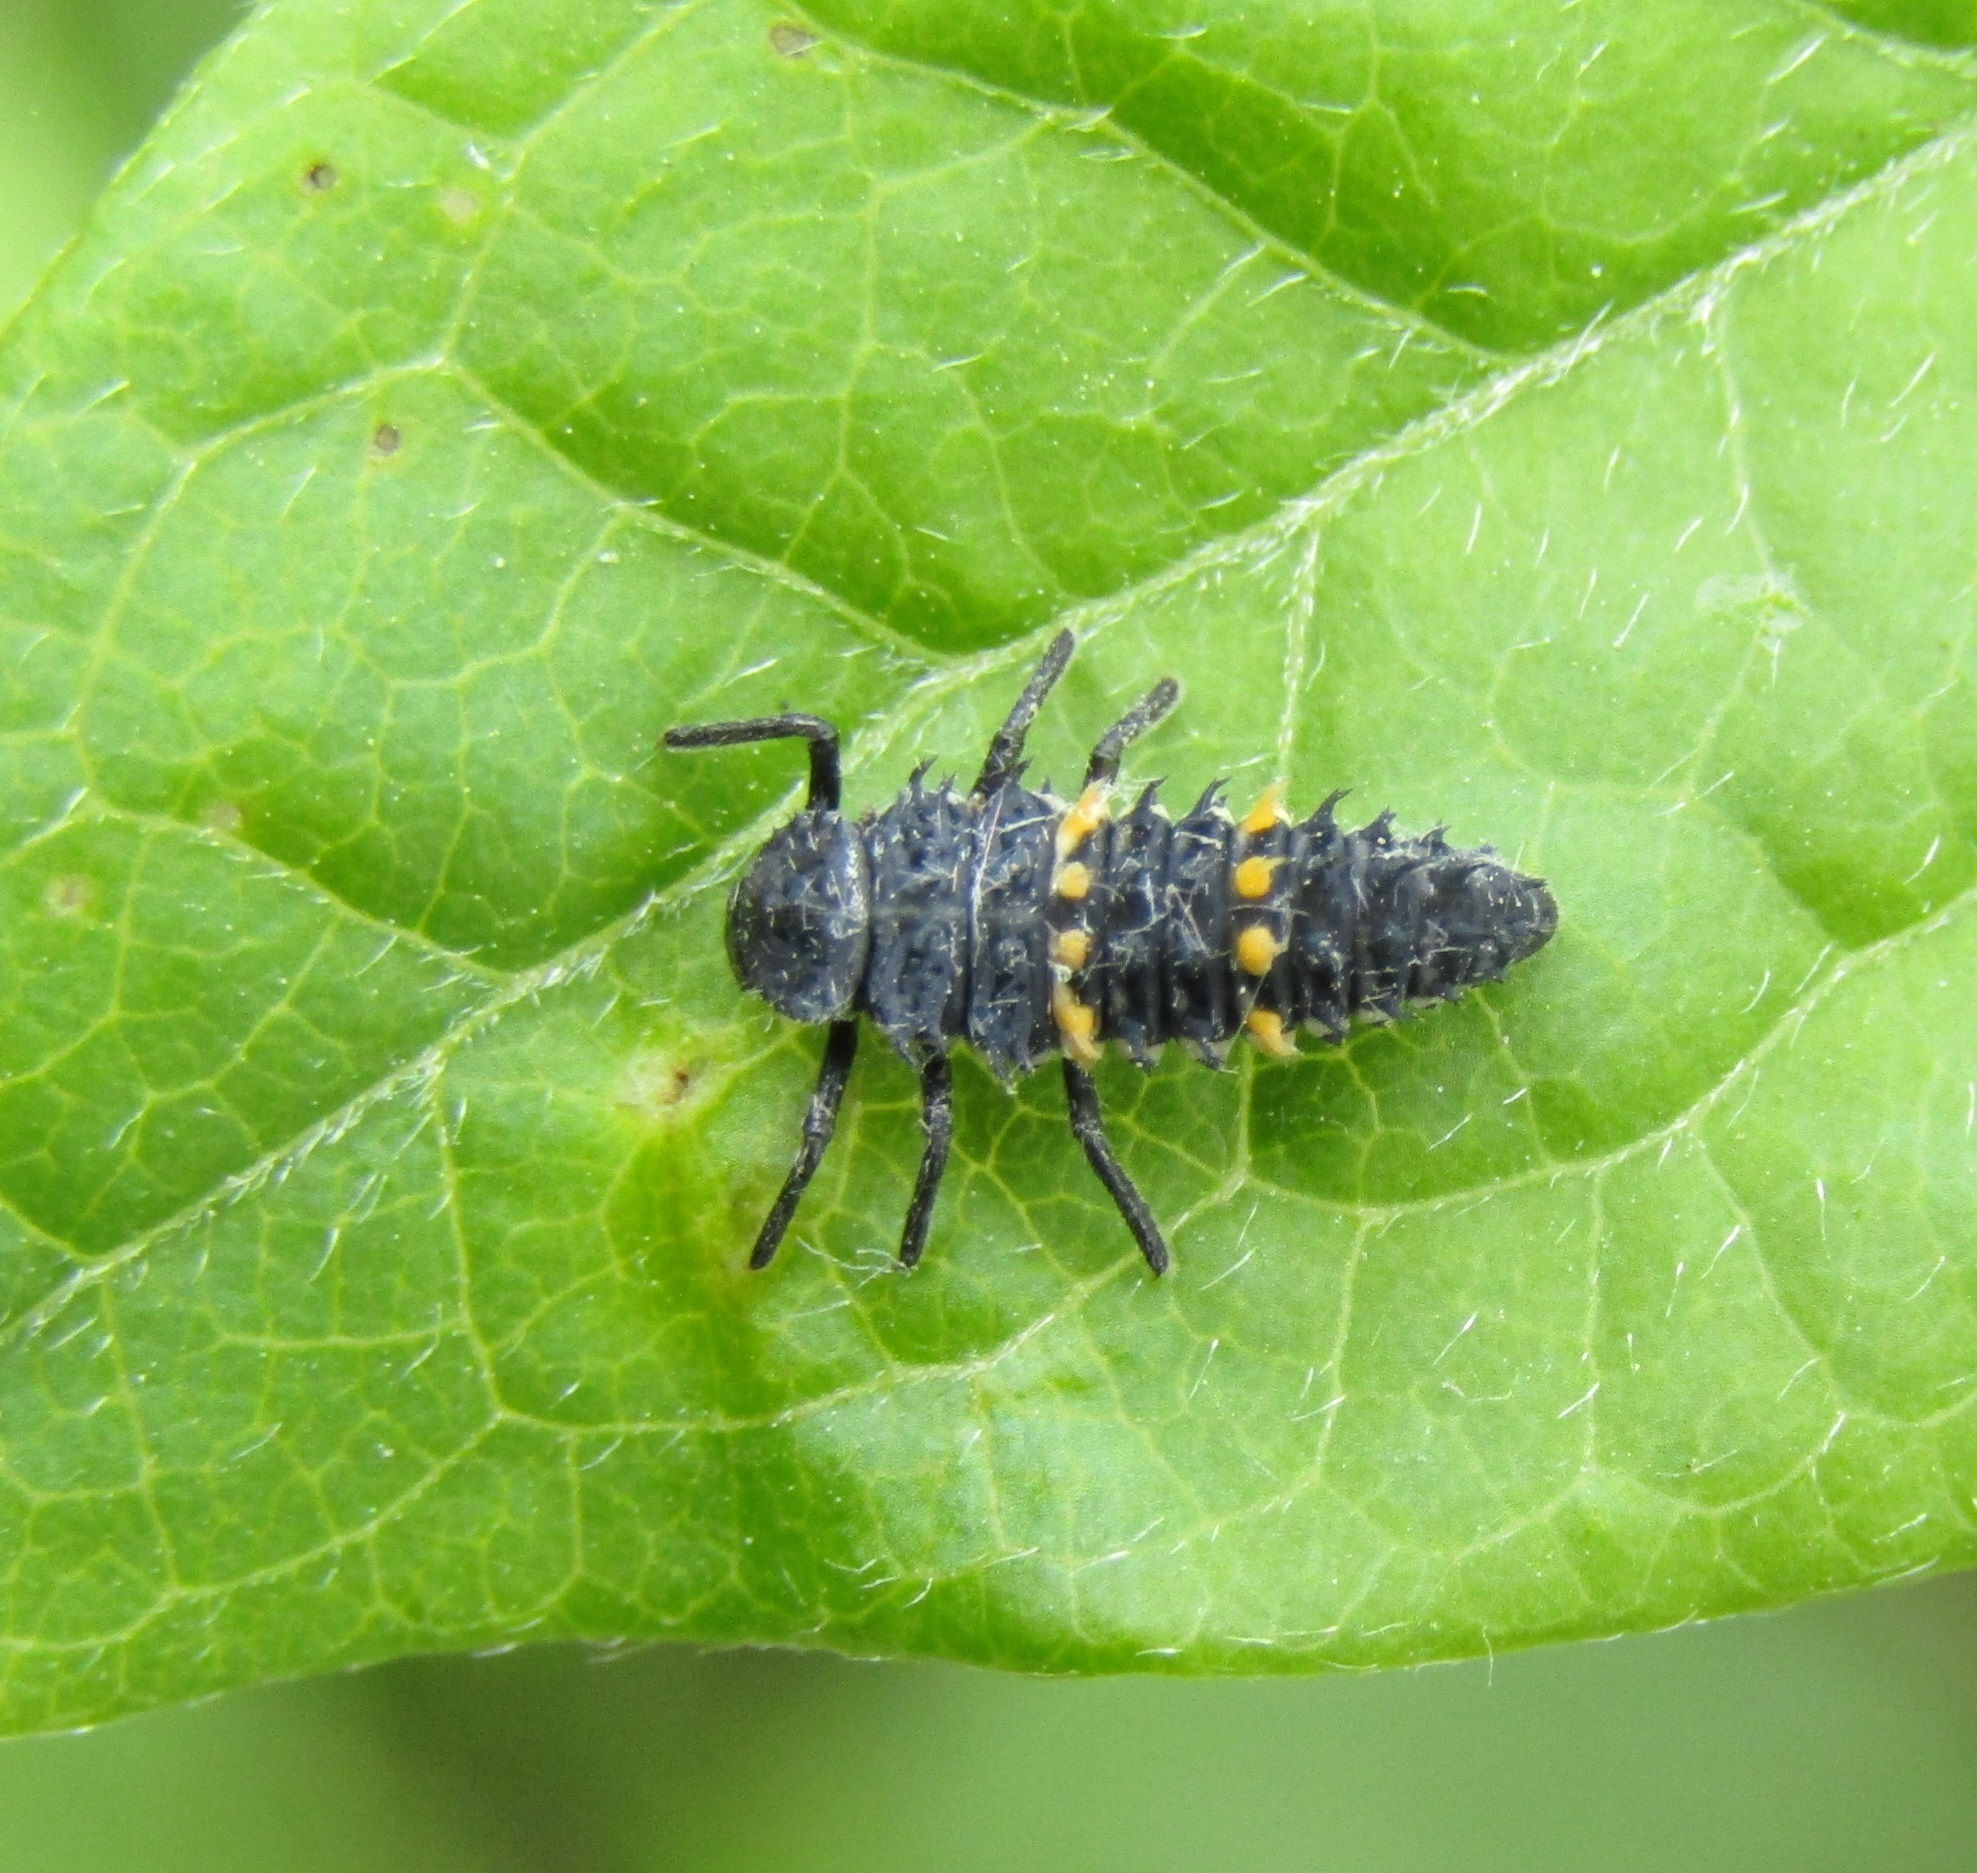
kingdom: Animalia
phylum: Arthropoda
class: Insecta
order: Coleoptera
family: Coccinellidae
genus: Harmonia
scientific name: Harmonia conformis
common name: Common spotted ladybird beetle
